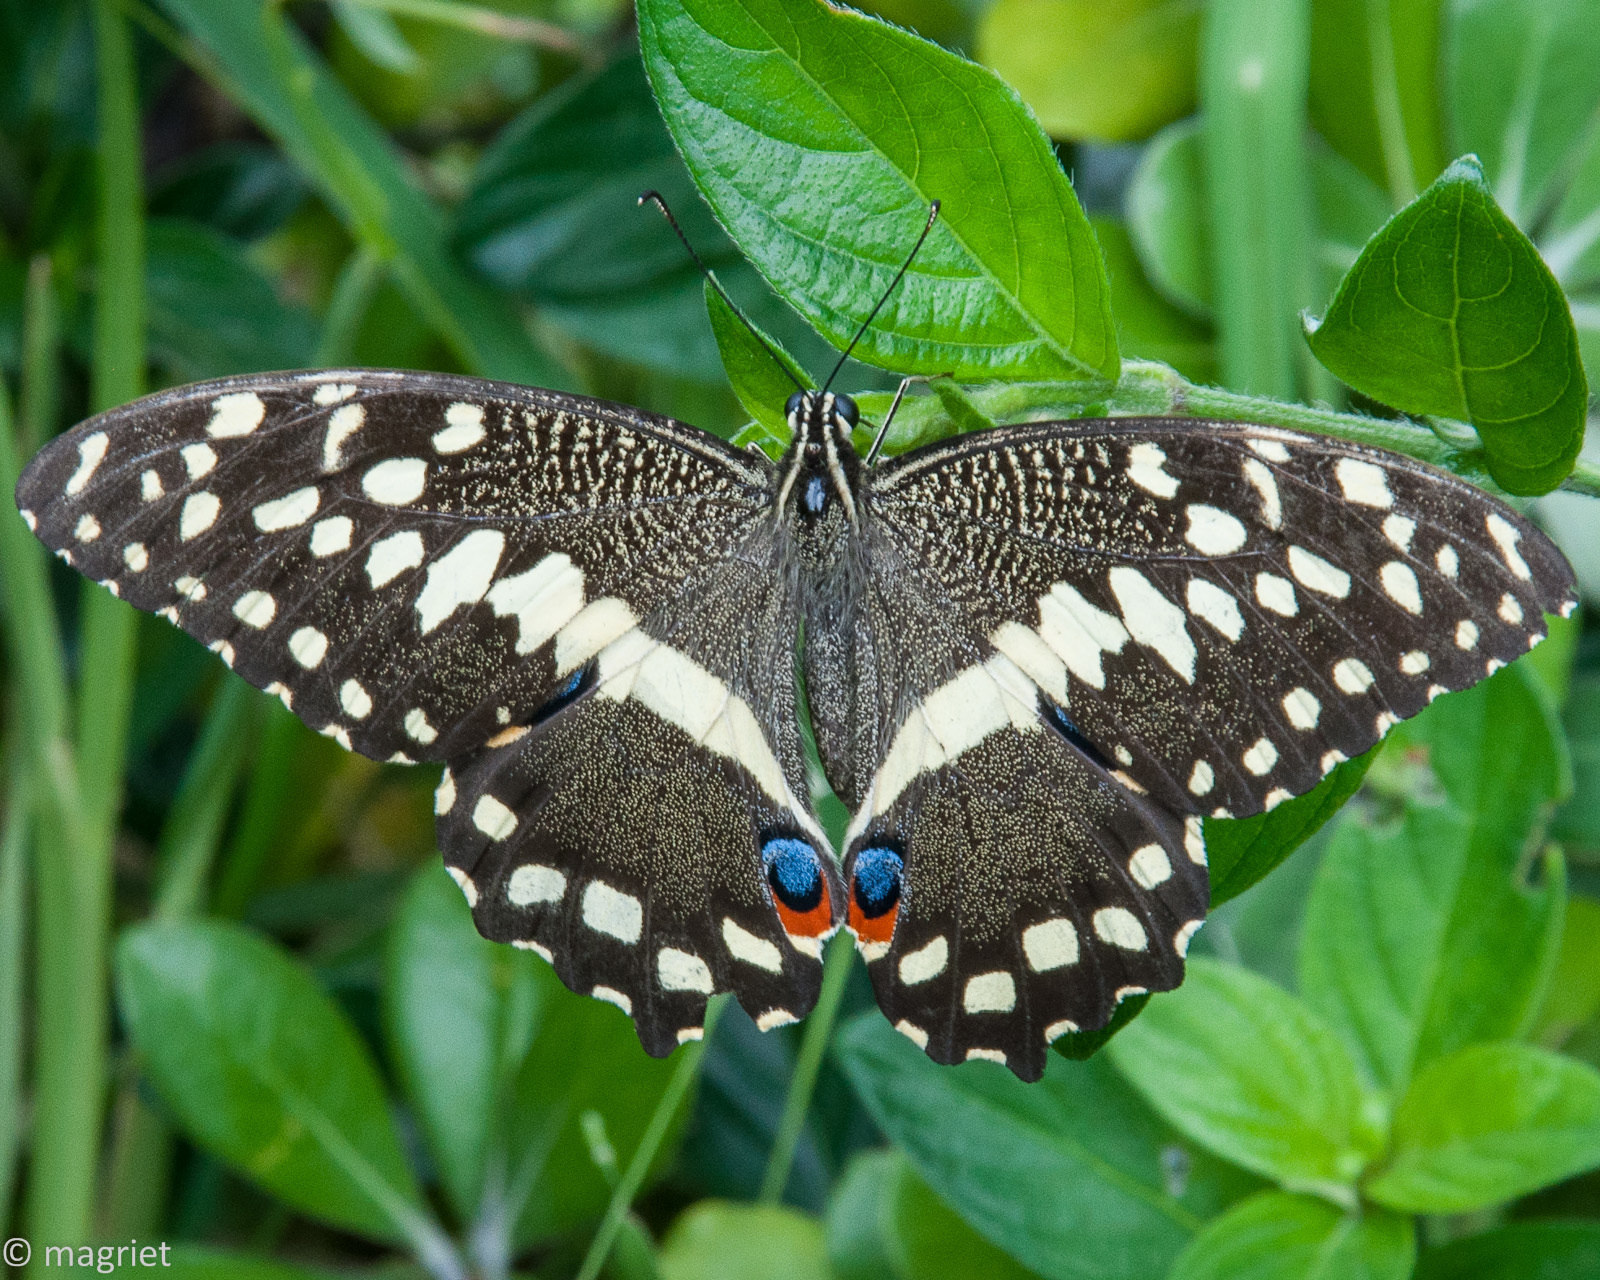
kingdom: Animalia
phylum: Arthropoda
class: Insecta
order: Lepidoptera
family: Papilionidae
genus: Papilio
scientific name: Papilio demodocus
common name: Christmas butterfly
